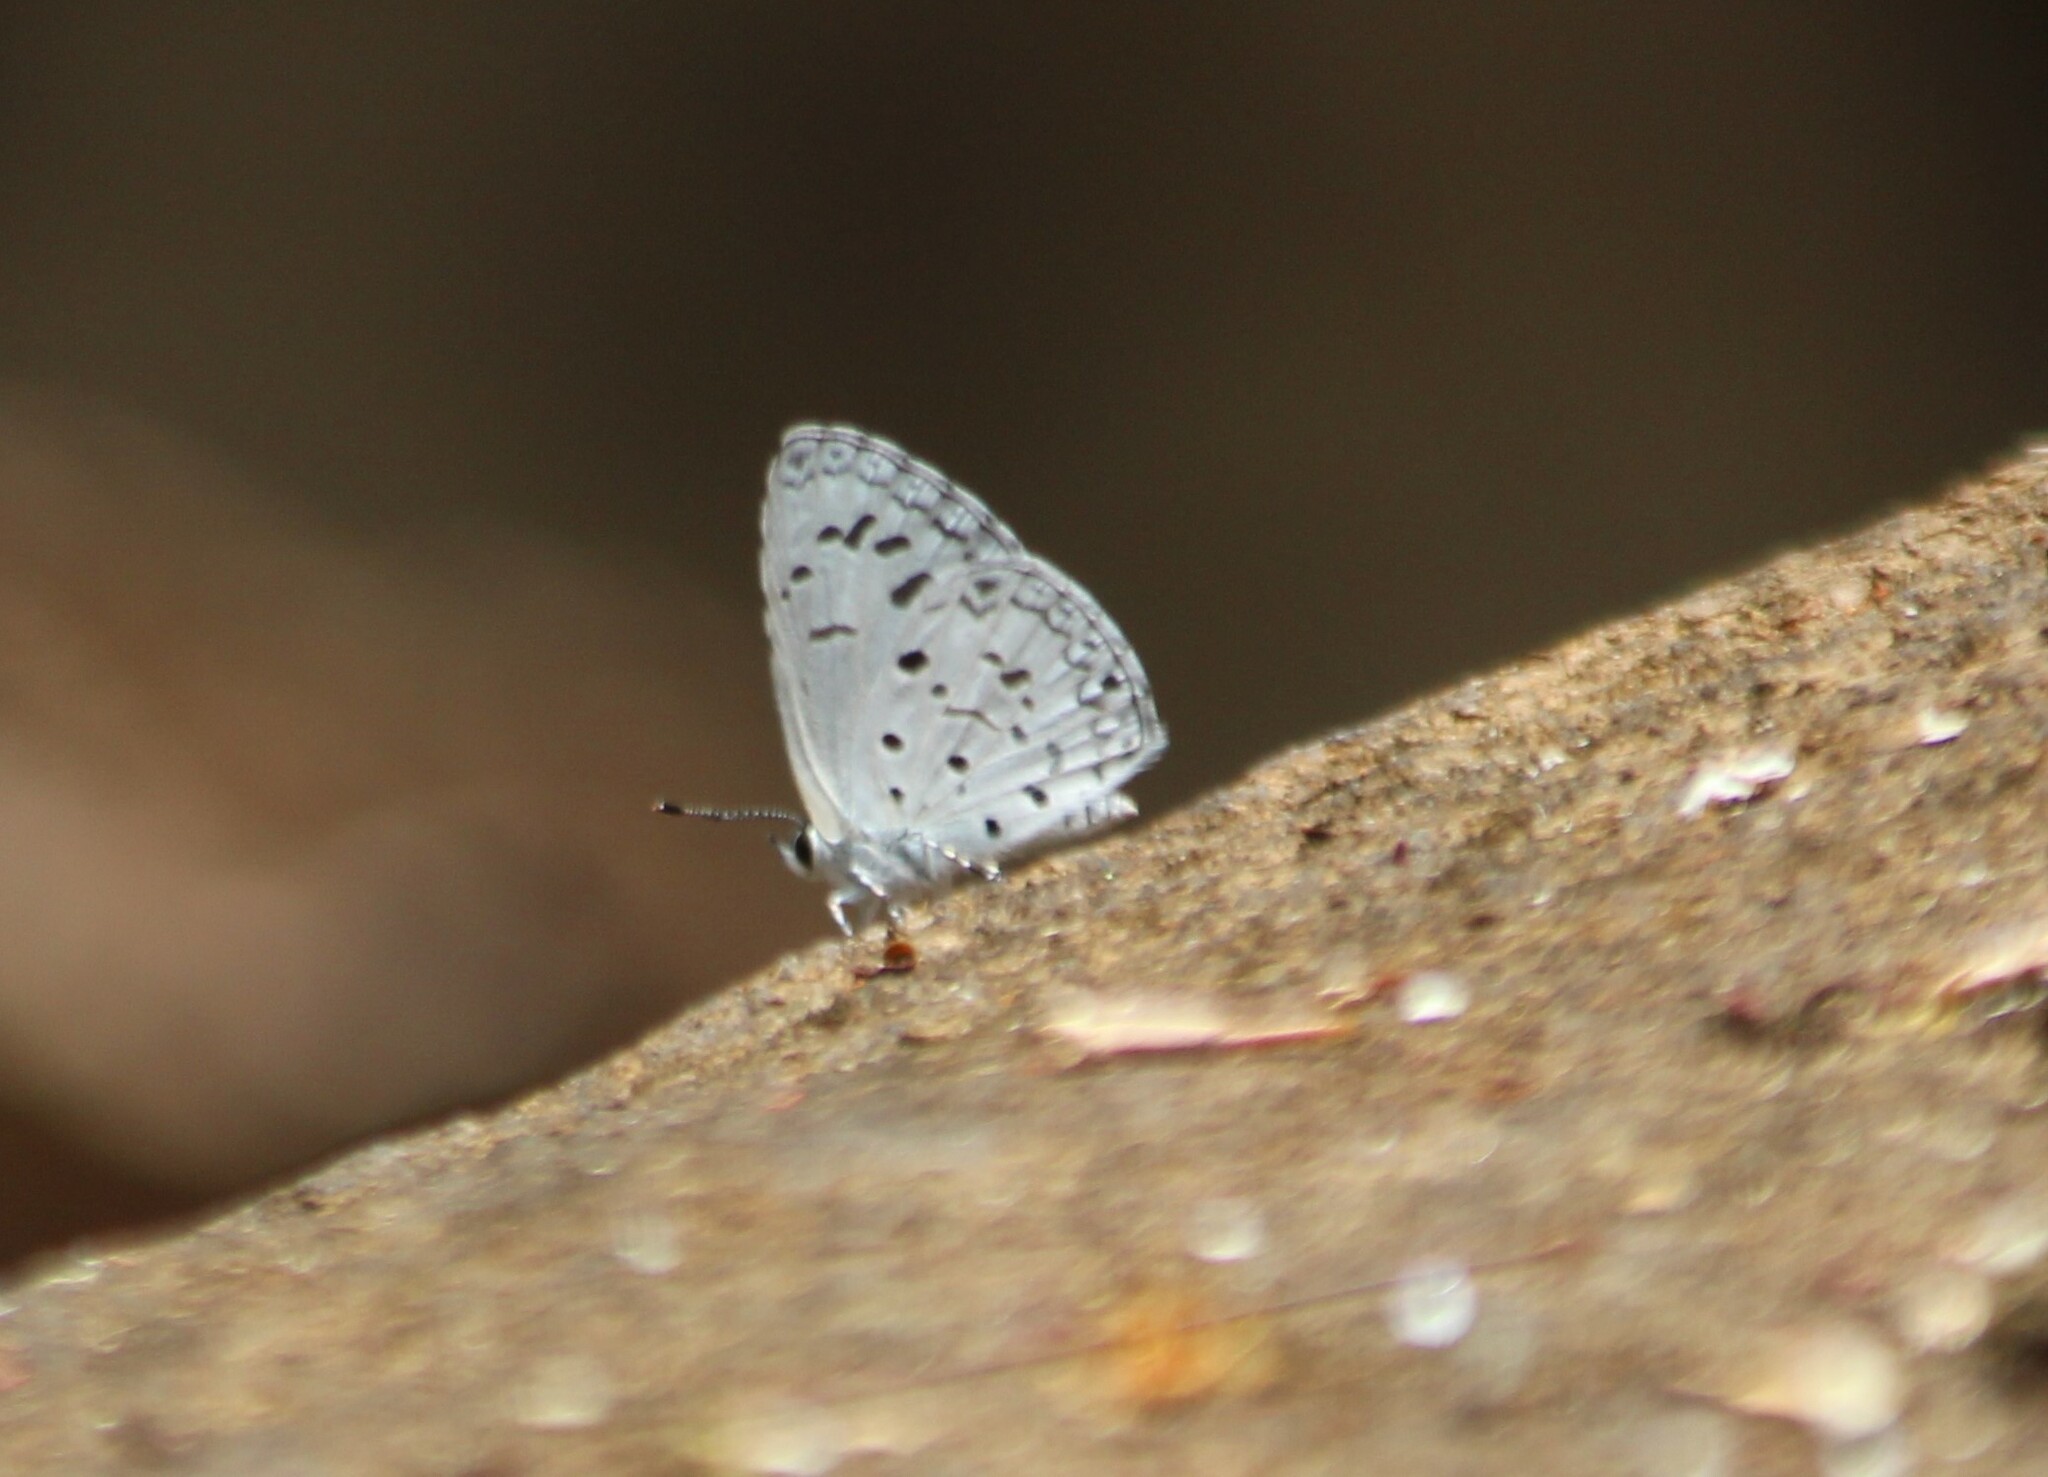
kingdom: Animalia
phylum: Arthropoda
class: Insecta
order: Lepidoptera
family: Lycaenidae
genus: Acytolepis
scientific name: Acytolepis puspa
